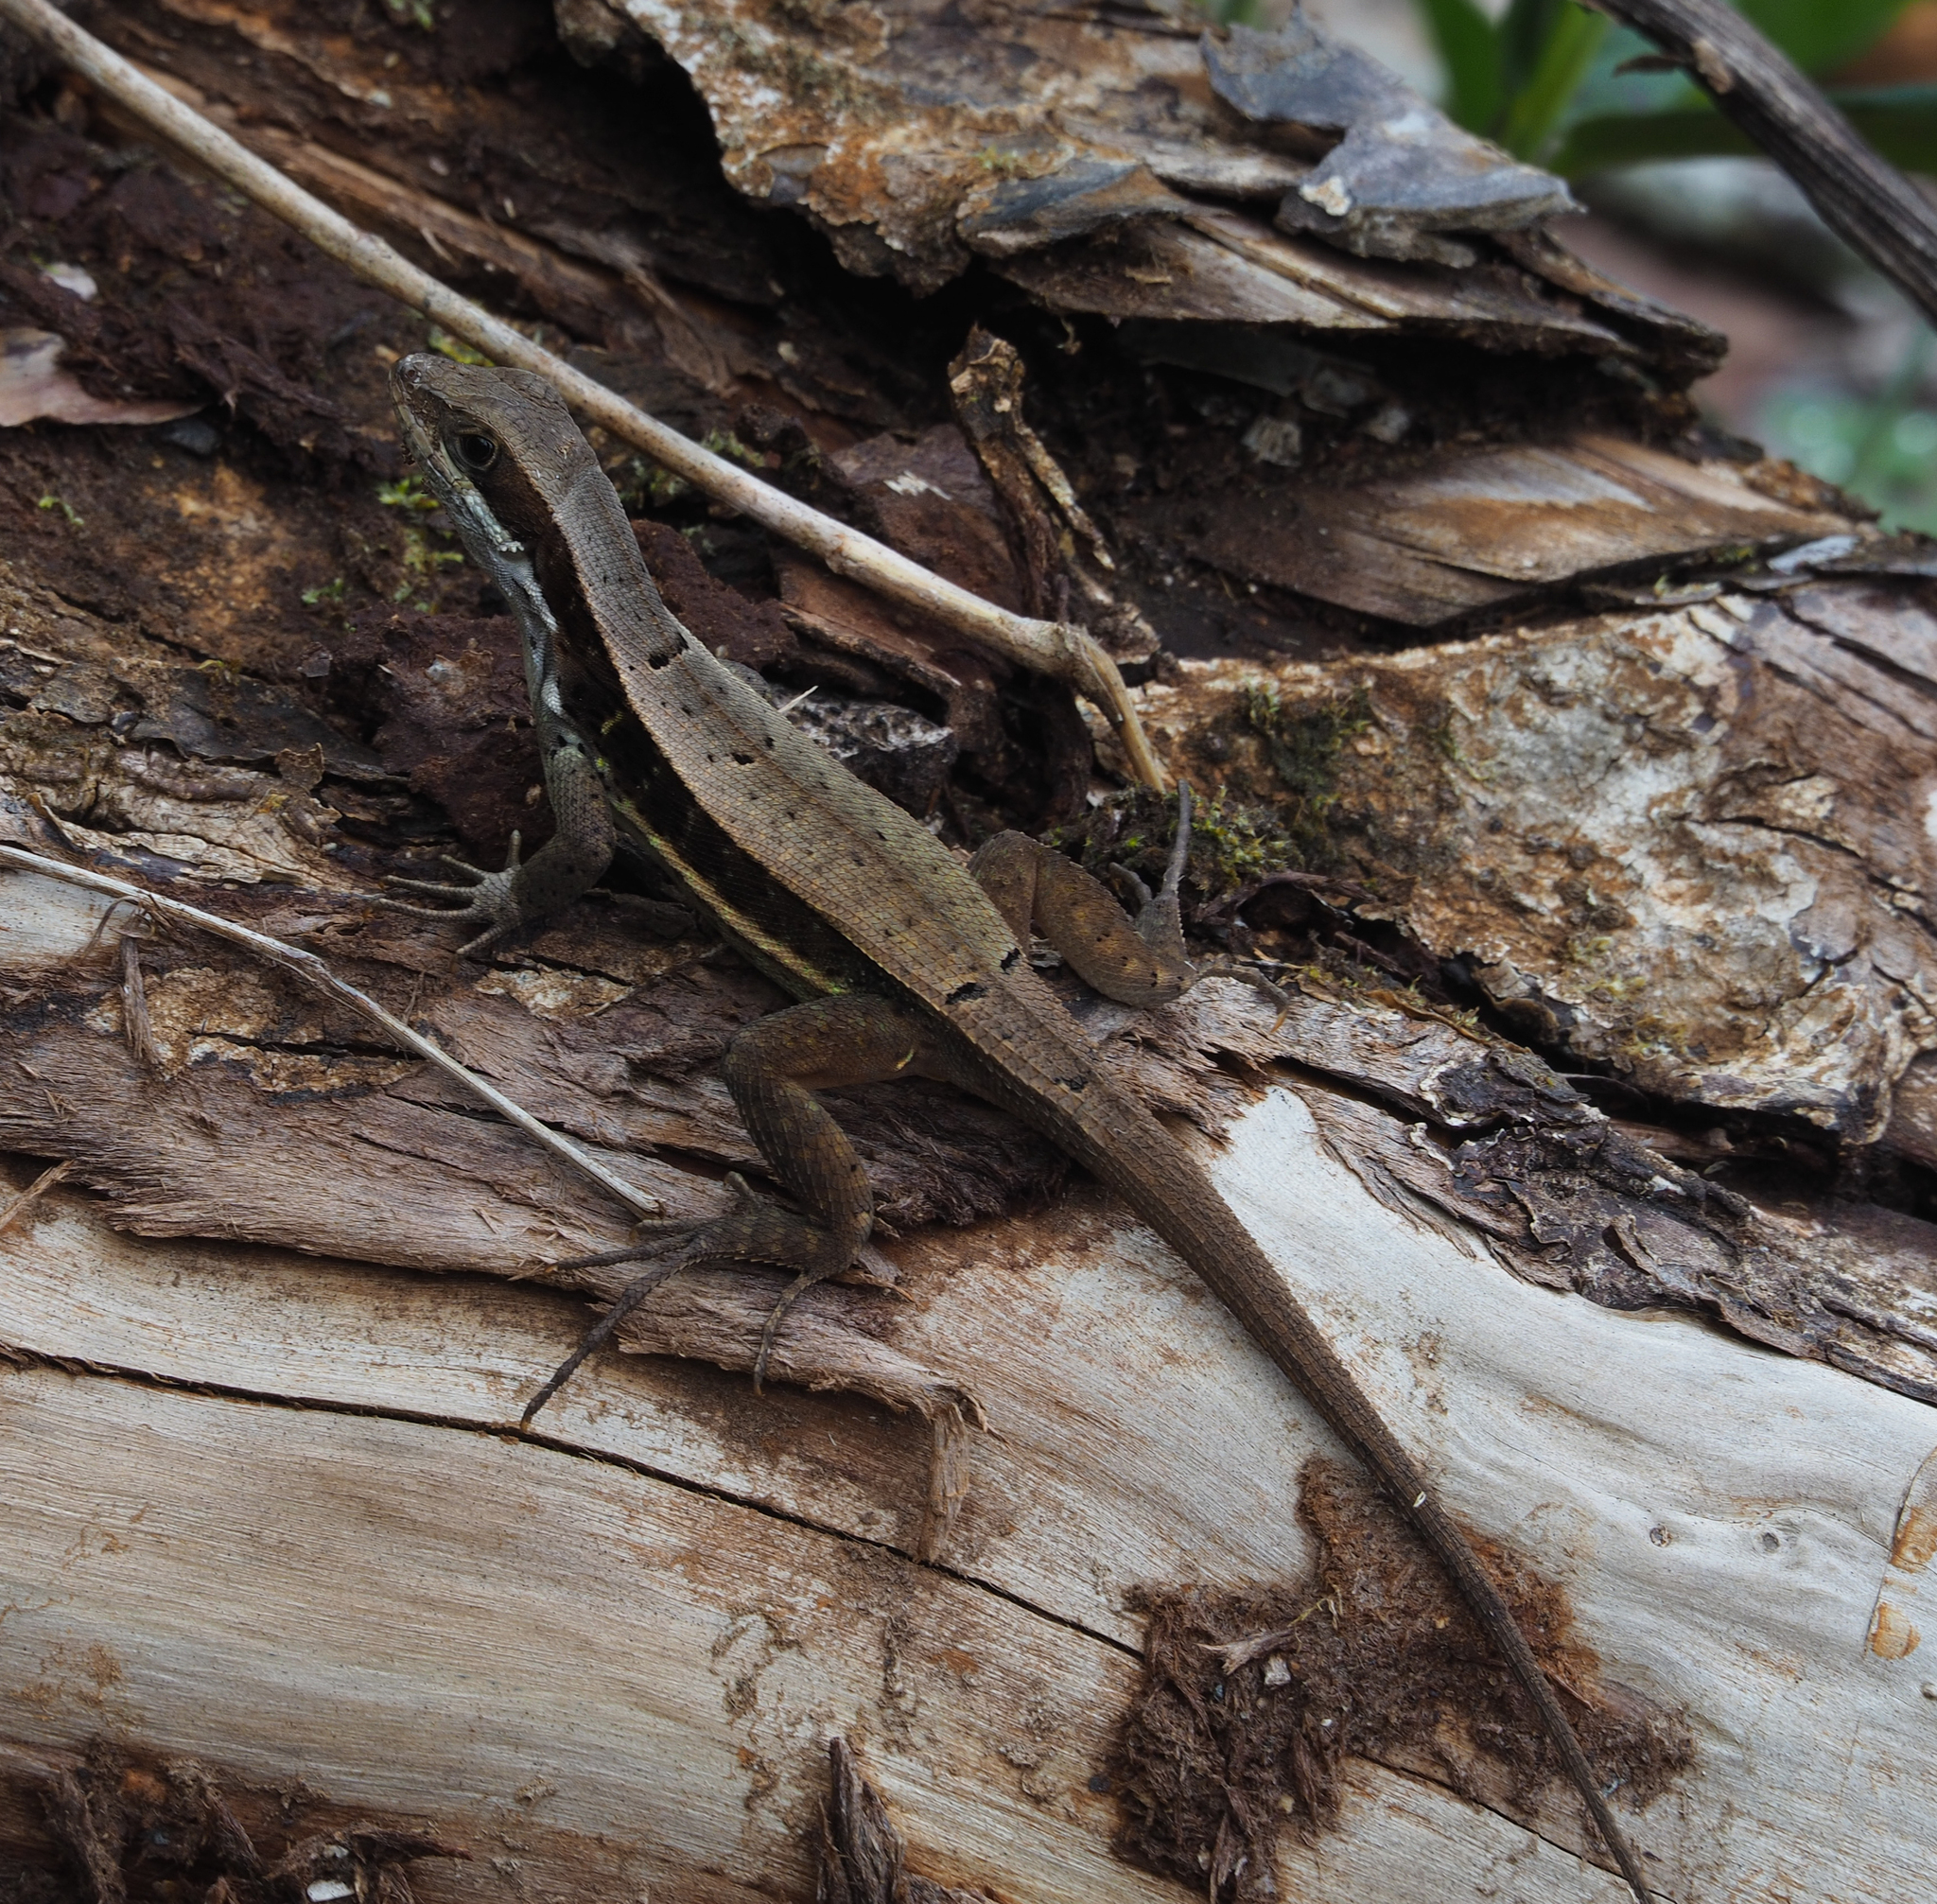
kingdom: Animalia
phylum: Chordata
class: Squamata
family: Leiocephalidae
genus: Leiocephalus
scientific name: Leiocephalus macropus
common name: Monte verde curlytail lizard
